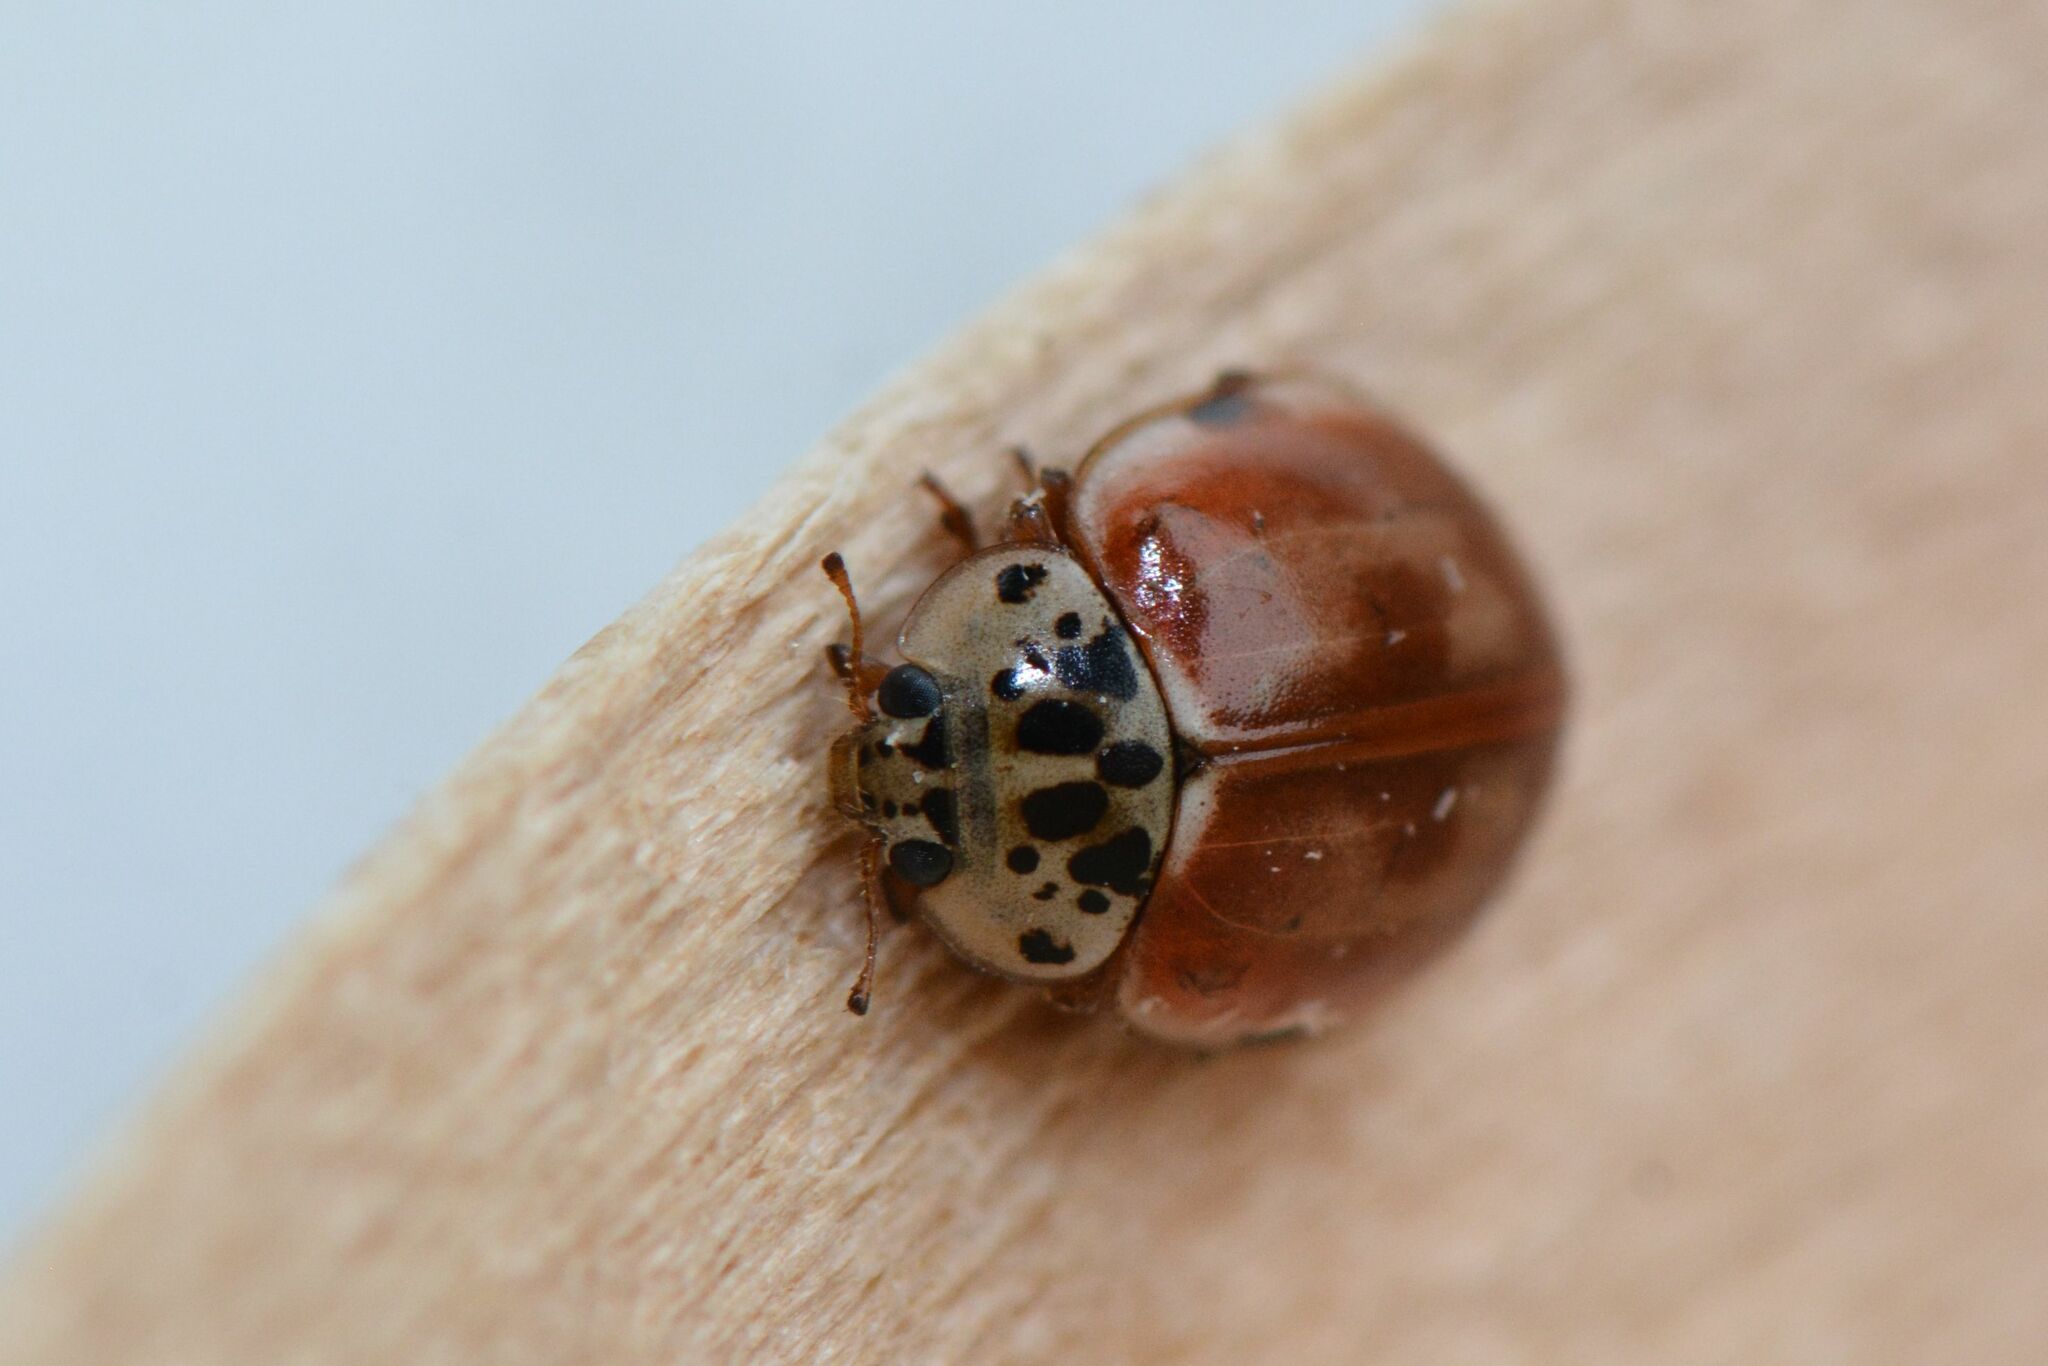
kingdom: Animalia
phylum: Arthropoda
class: Insecta
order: Coleoptera
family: Coccinellidae
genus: Harmonia
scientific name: Harmonia quadripunctata
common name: Cream-streaked ladybird
